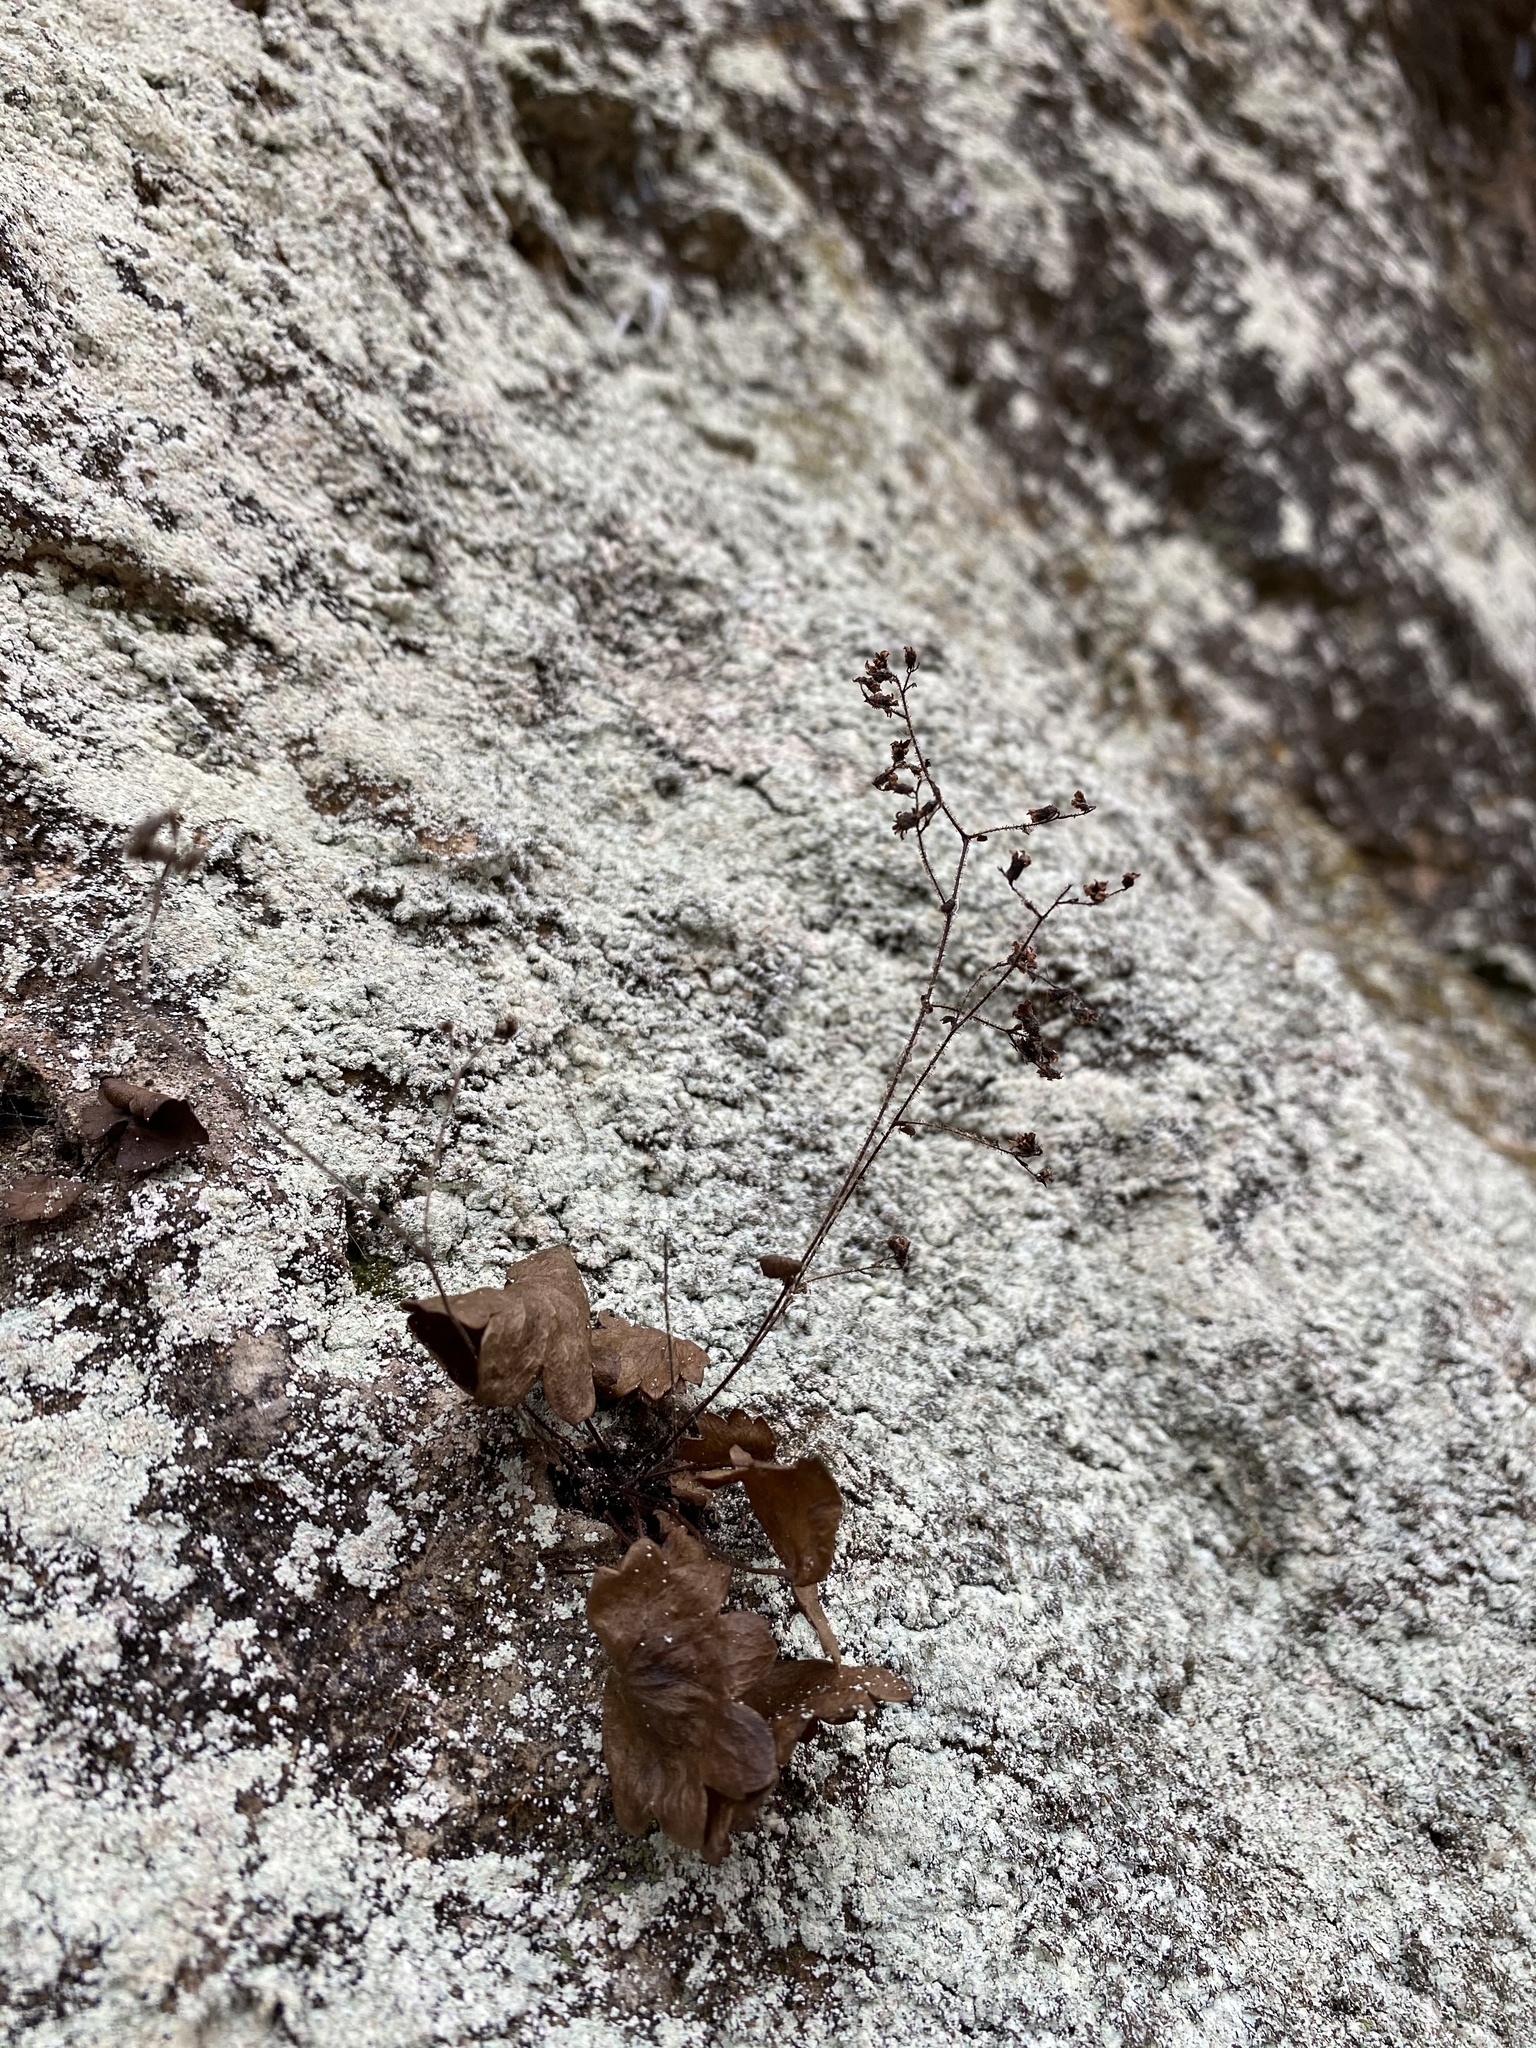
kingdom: Plantae
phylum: Tracheophyta
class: Magnoliopsida
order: Saxifragales
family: Saxifragaceae
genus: Sullivantia
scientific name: Sullivantia sullivantii
